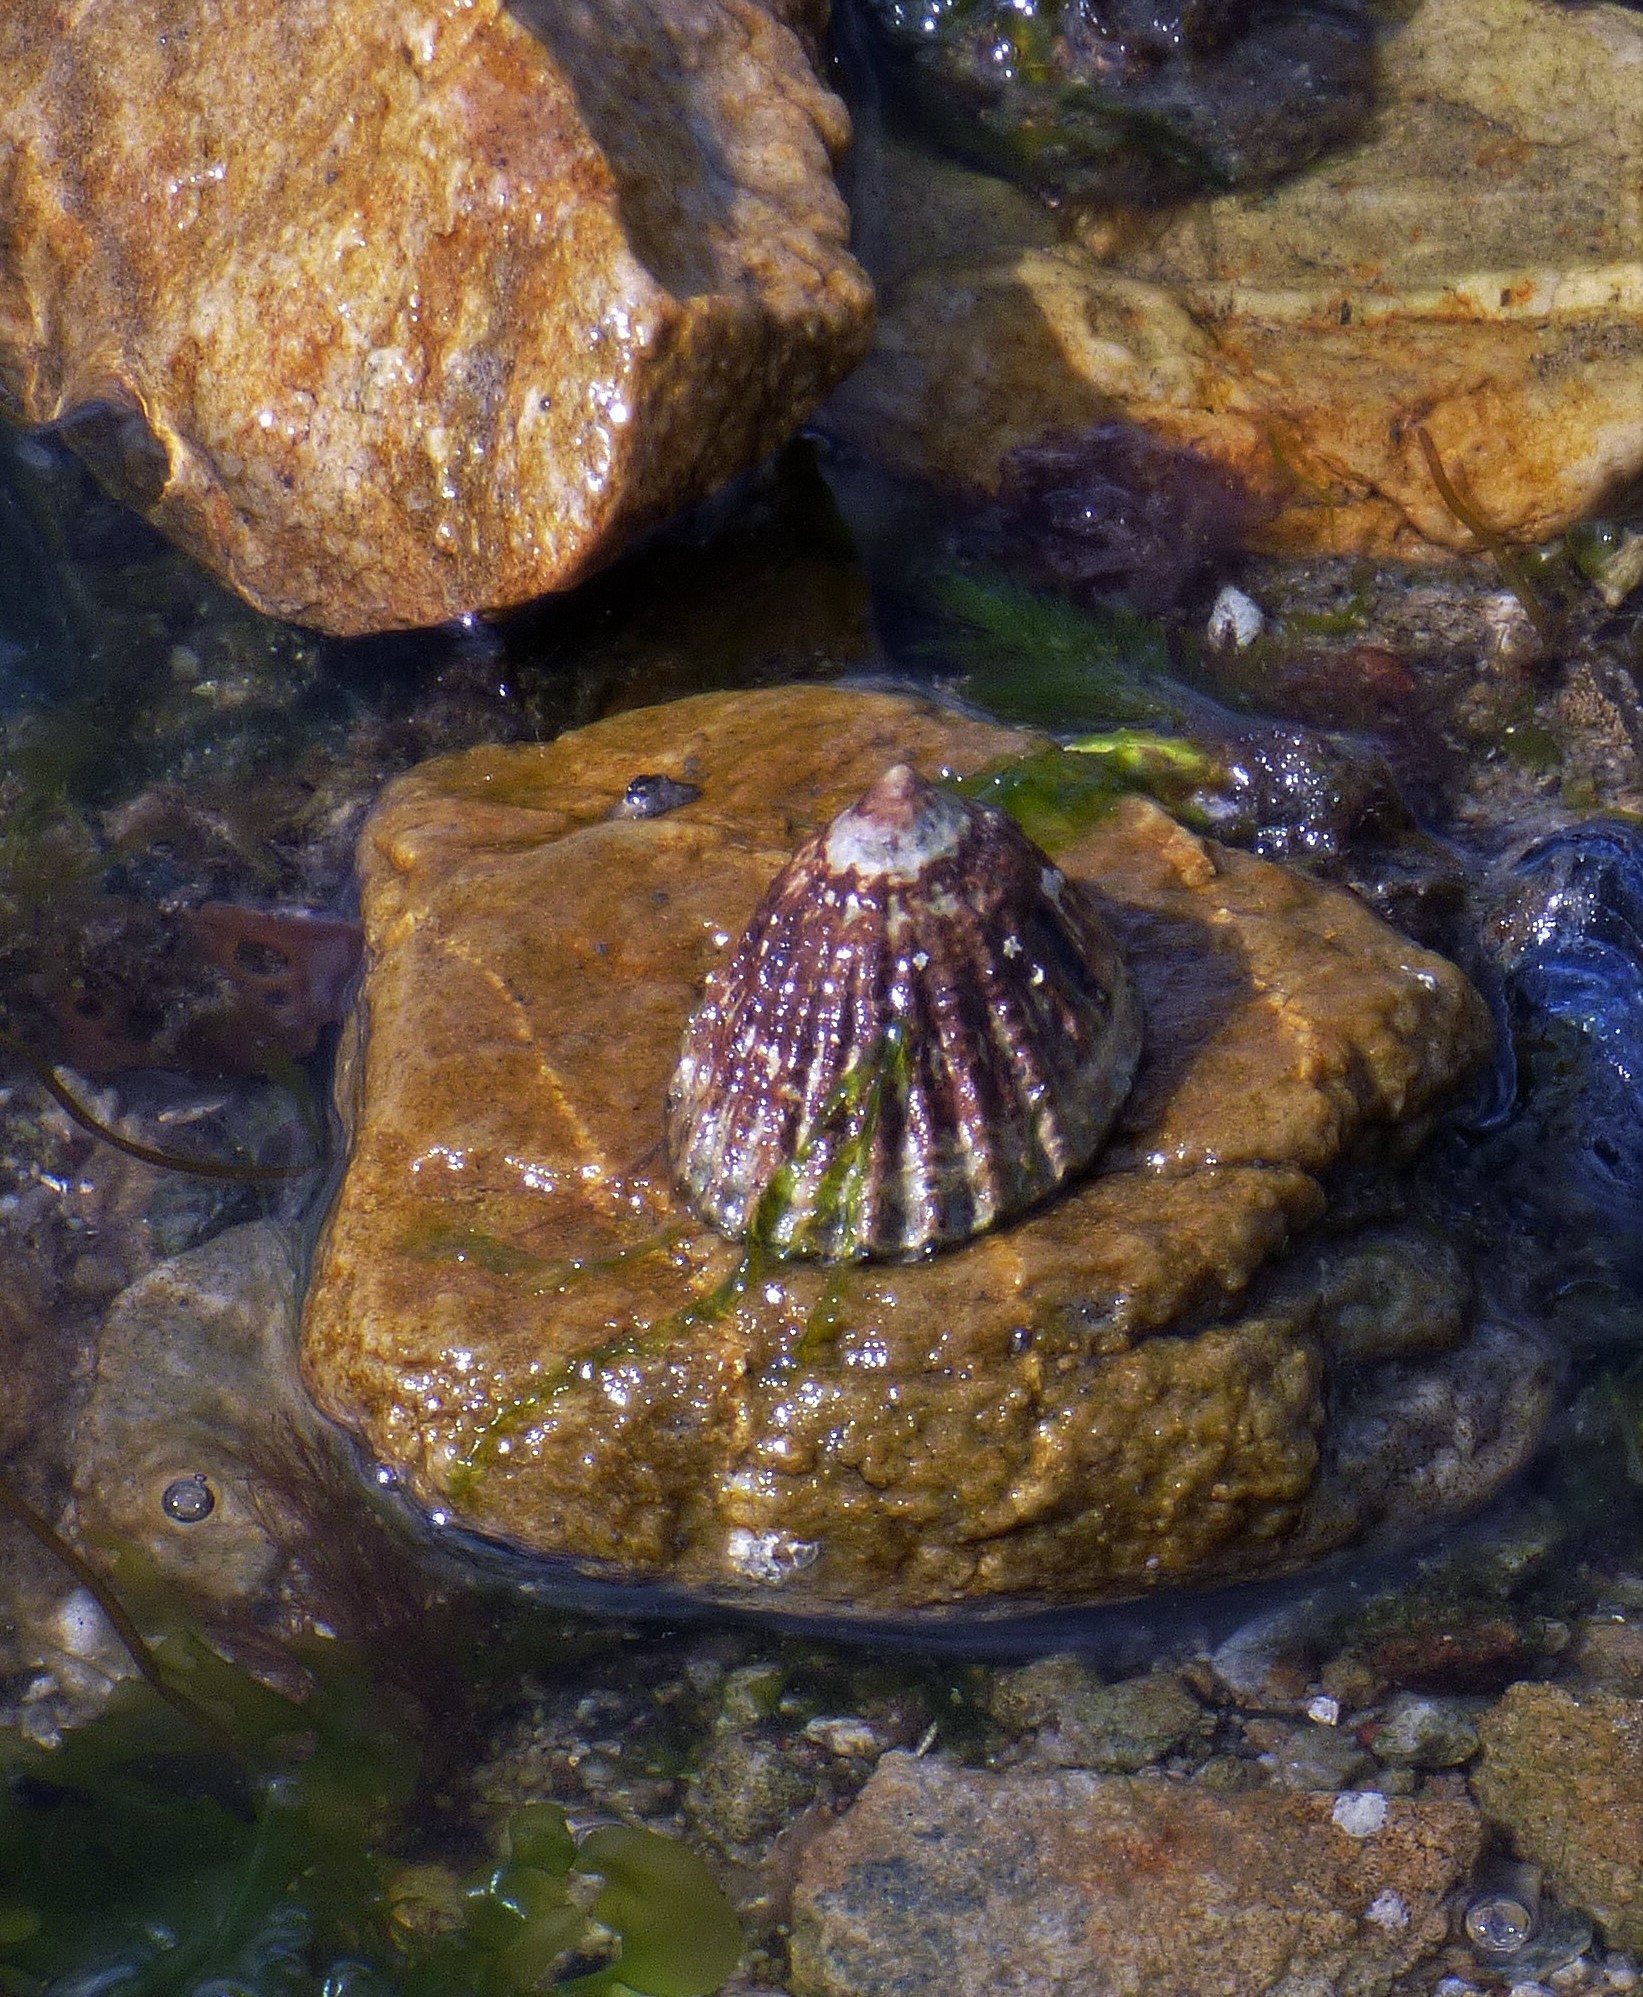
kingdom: Animalia
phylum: Mollusca
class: Gastropoda
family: Nacellidae
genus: Nacella
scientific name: Nacella magellanica
